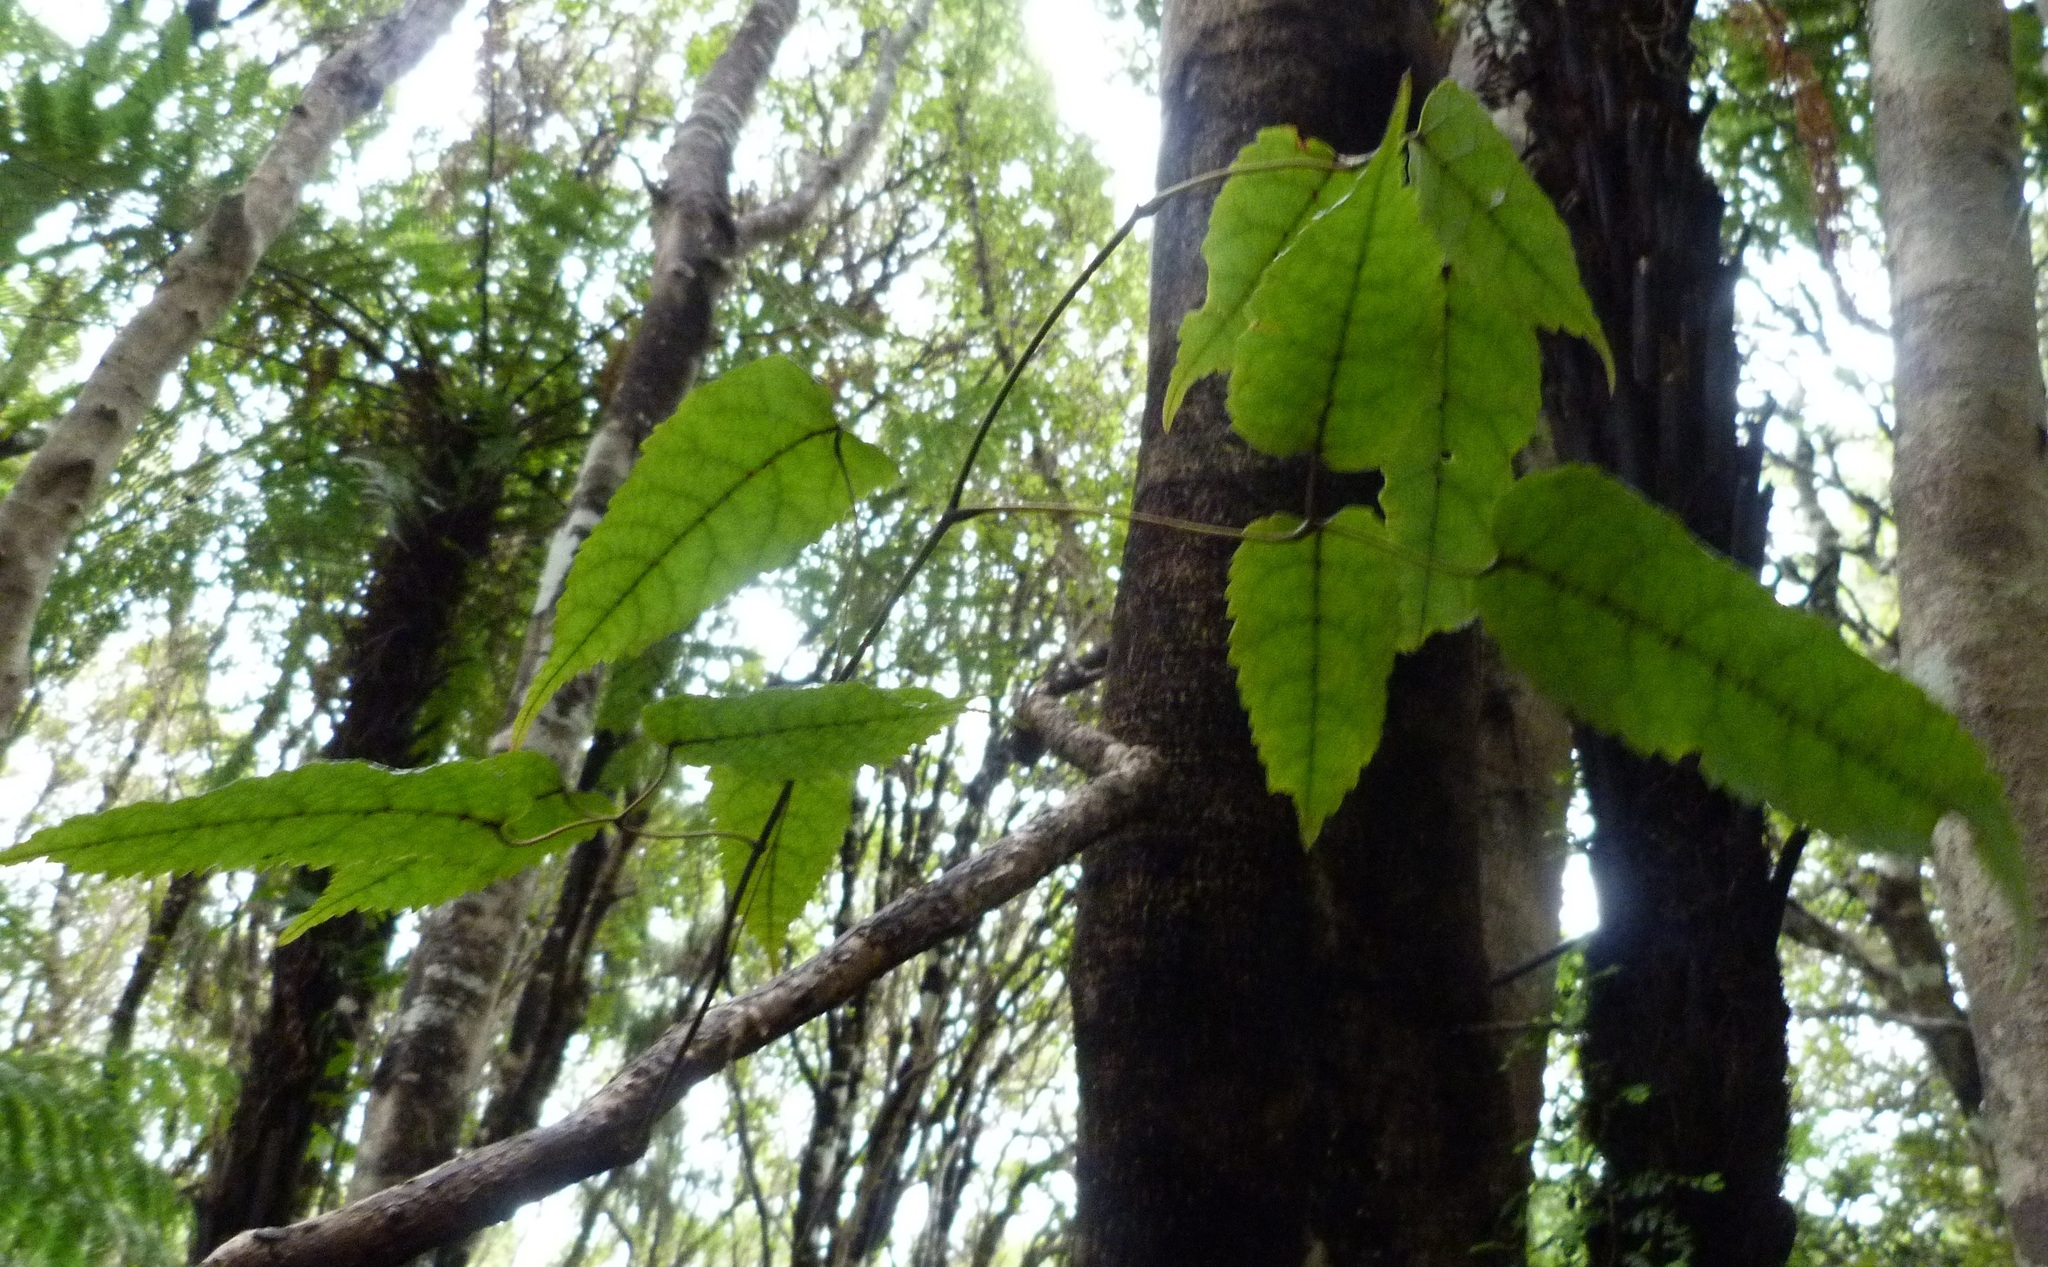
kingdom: Plantae
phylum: Tracheophyta
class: Magnoliopsida
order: Rosales
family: Rosaceae
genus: Rubus
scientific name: Rubus cissoides
